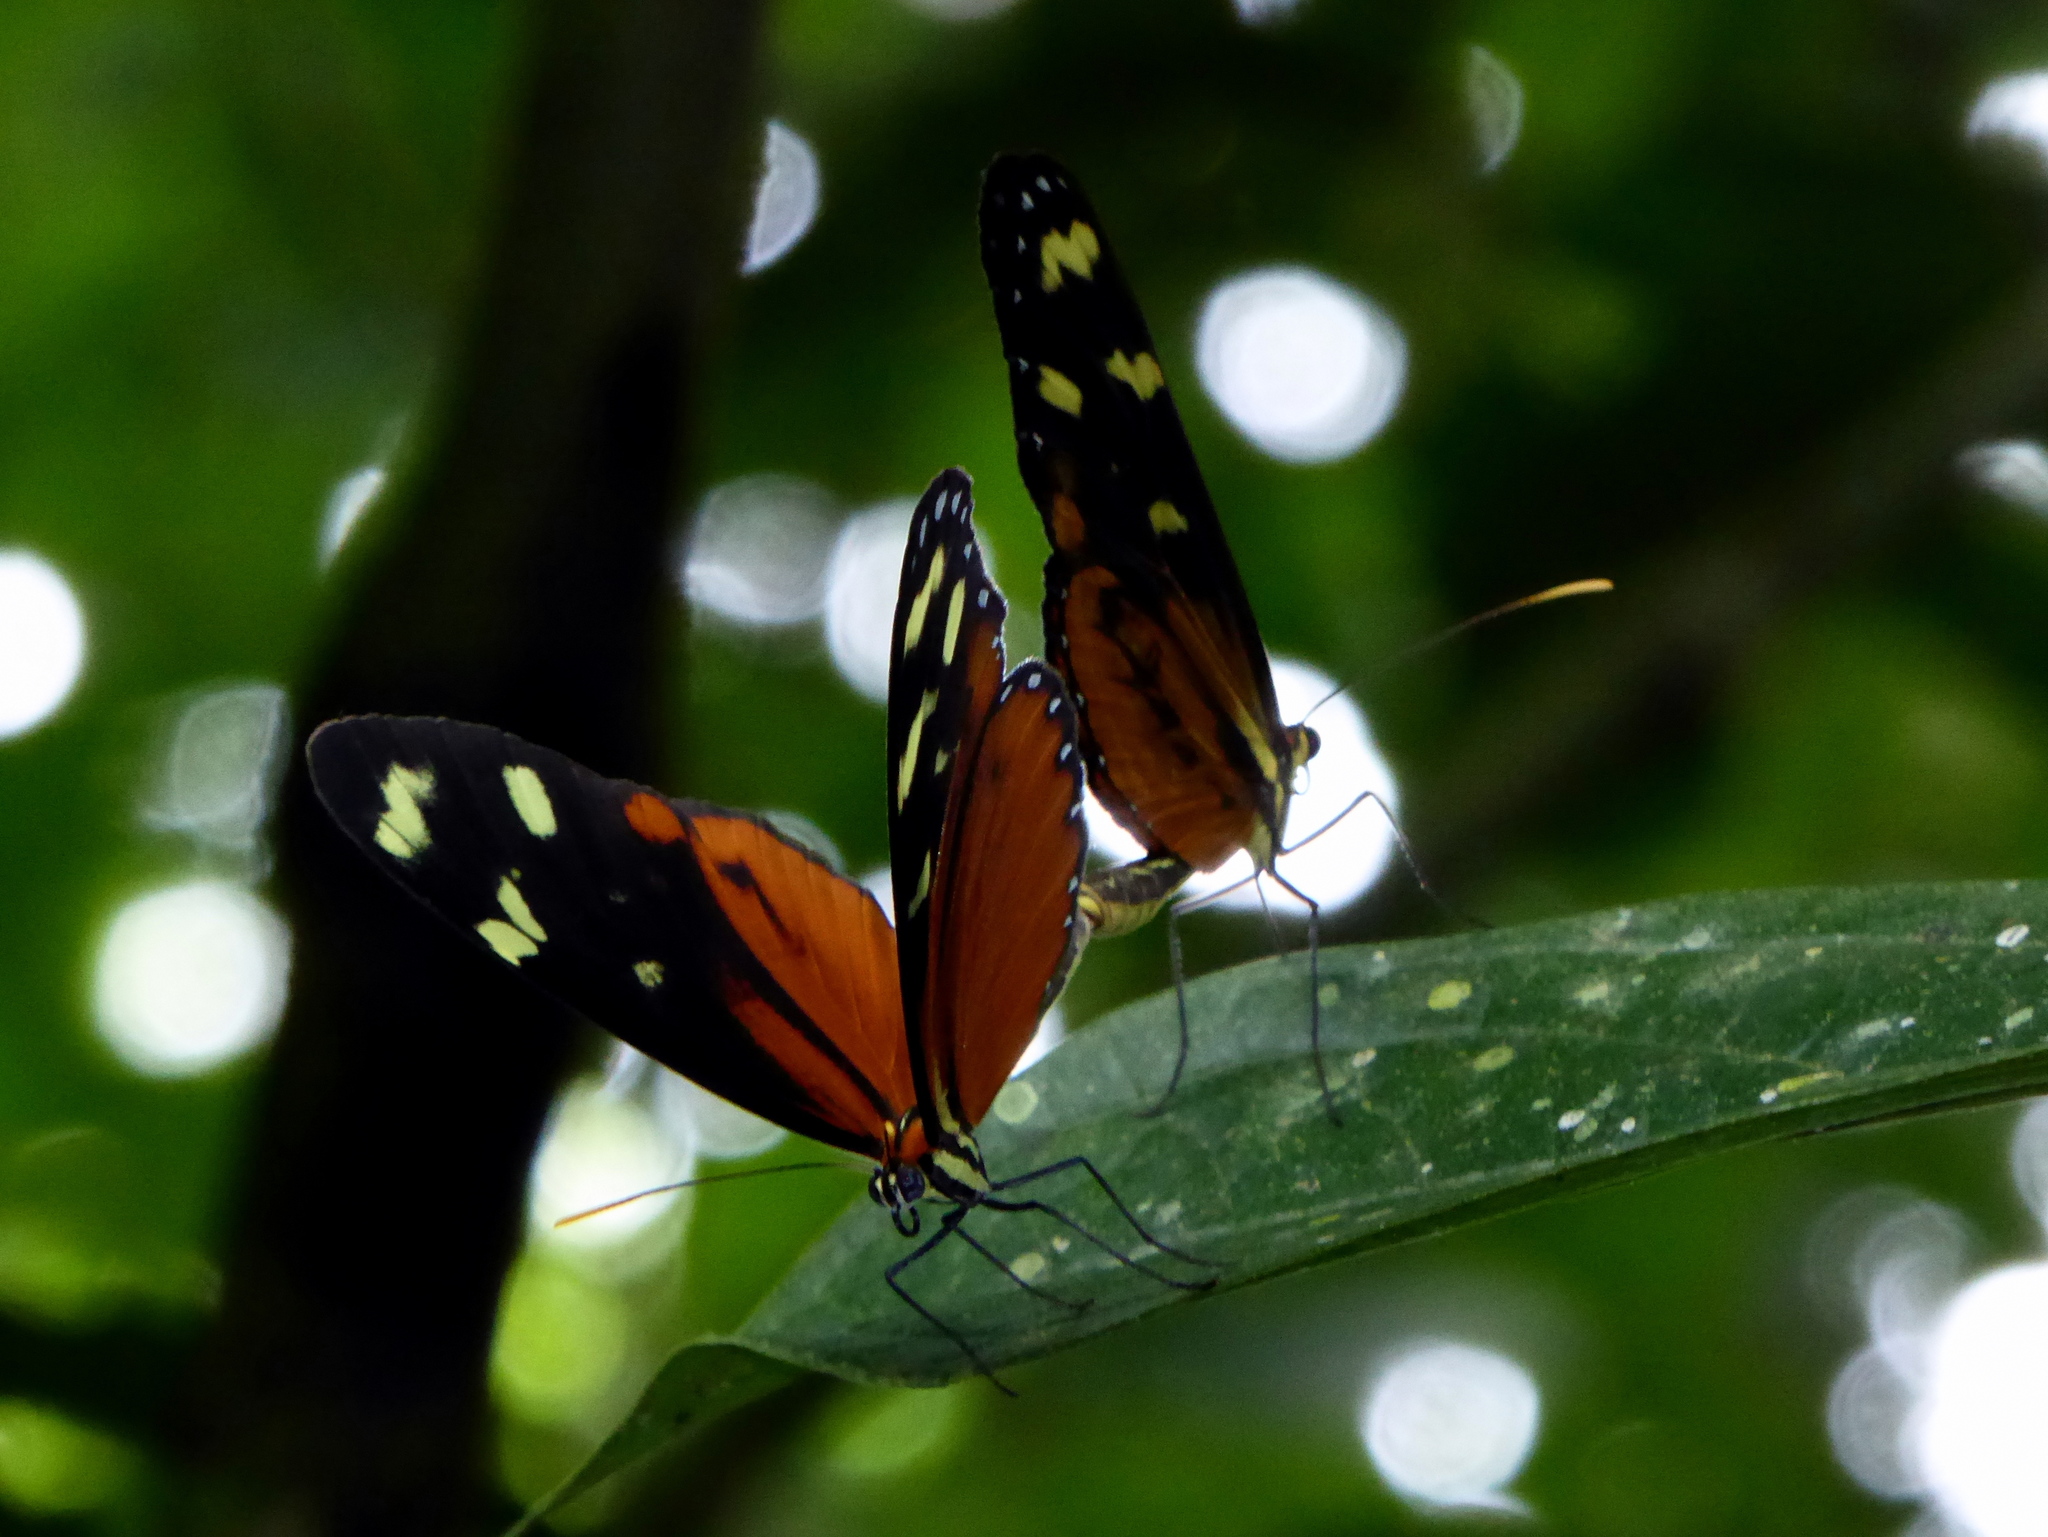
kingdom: Animalia
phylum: Arthropoda
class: Insecta
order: Lepidoptera
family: Nymphalidae
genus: Mechanitis
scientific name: Mechanitis polymnia
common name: Disturbed tigerwing
